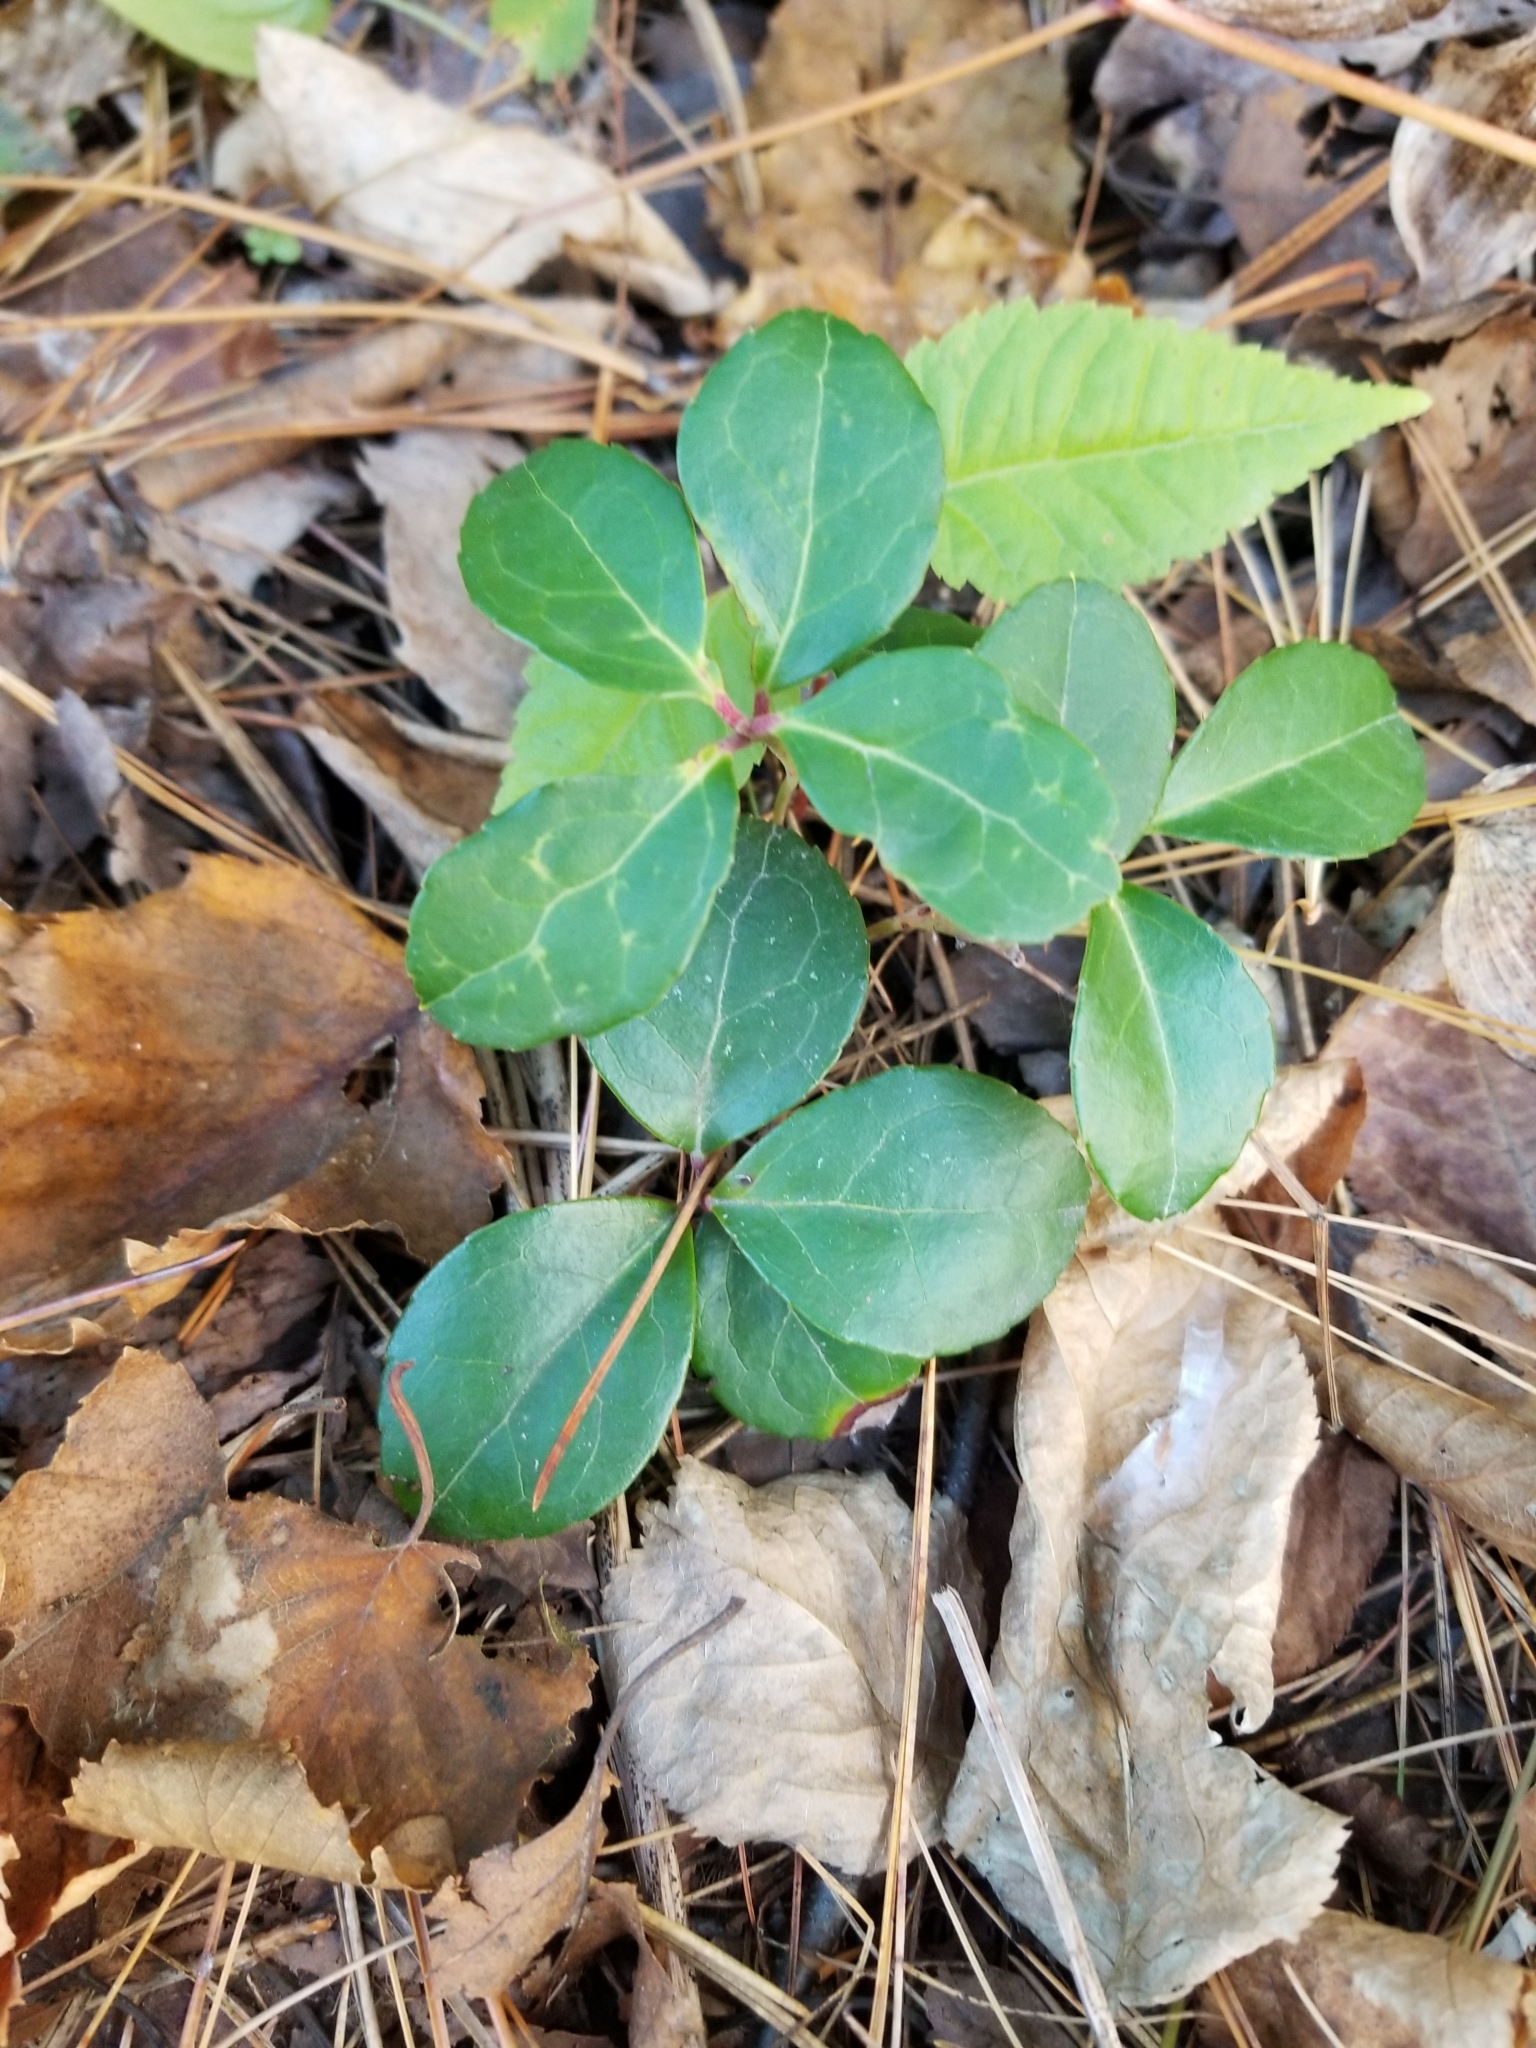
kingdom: Plantae
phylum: Tracheophyta
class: Magnoliopsida
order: Ericales
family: Ericaceae
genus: Gaultheria
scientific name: Gaultheria procumbens
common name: Checkerberry
